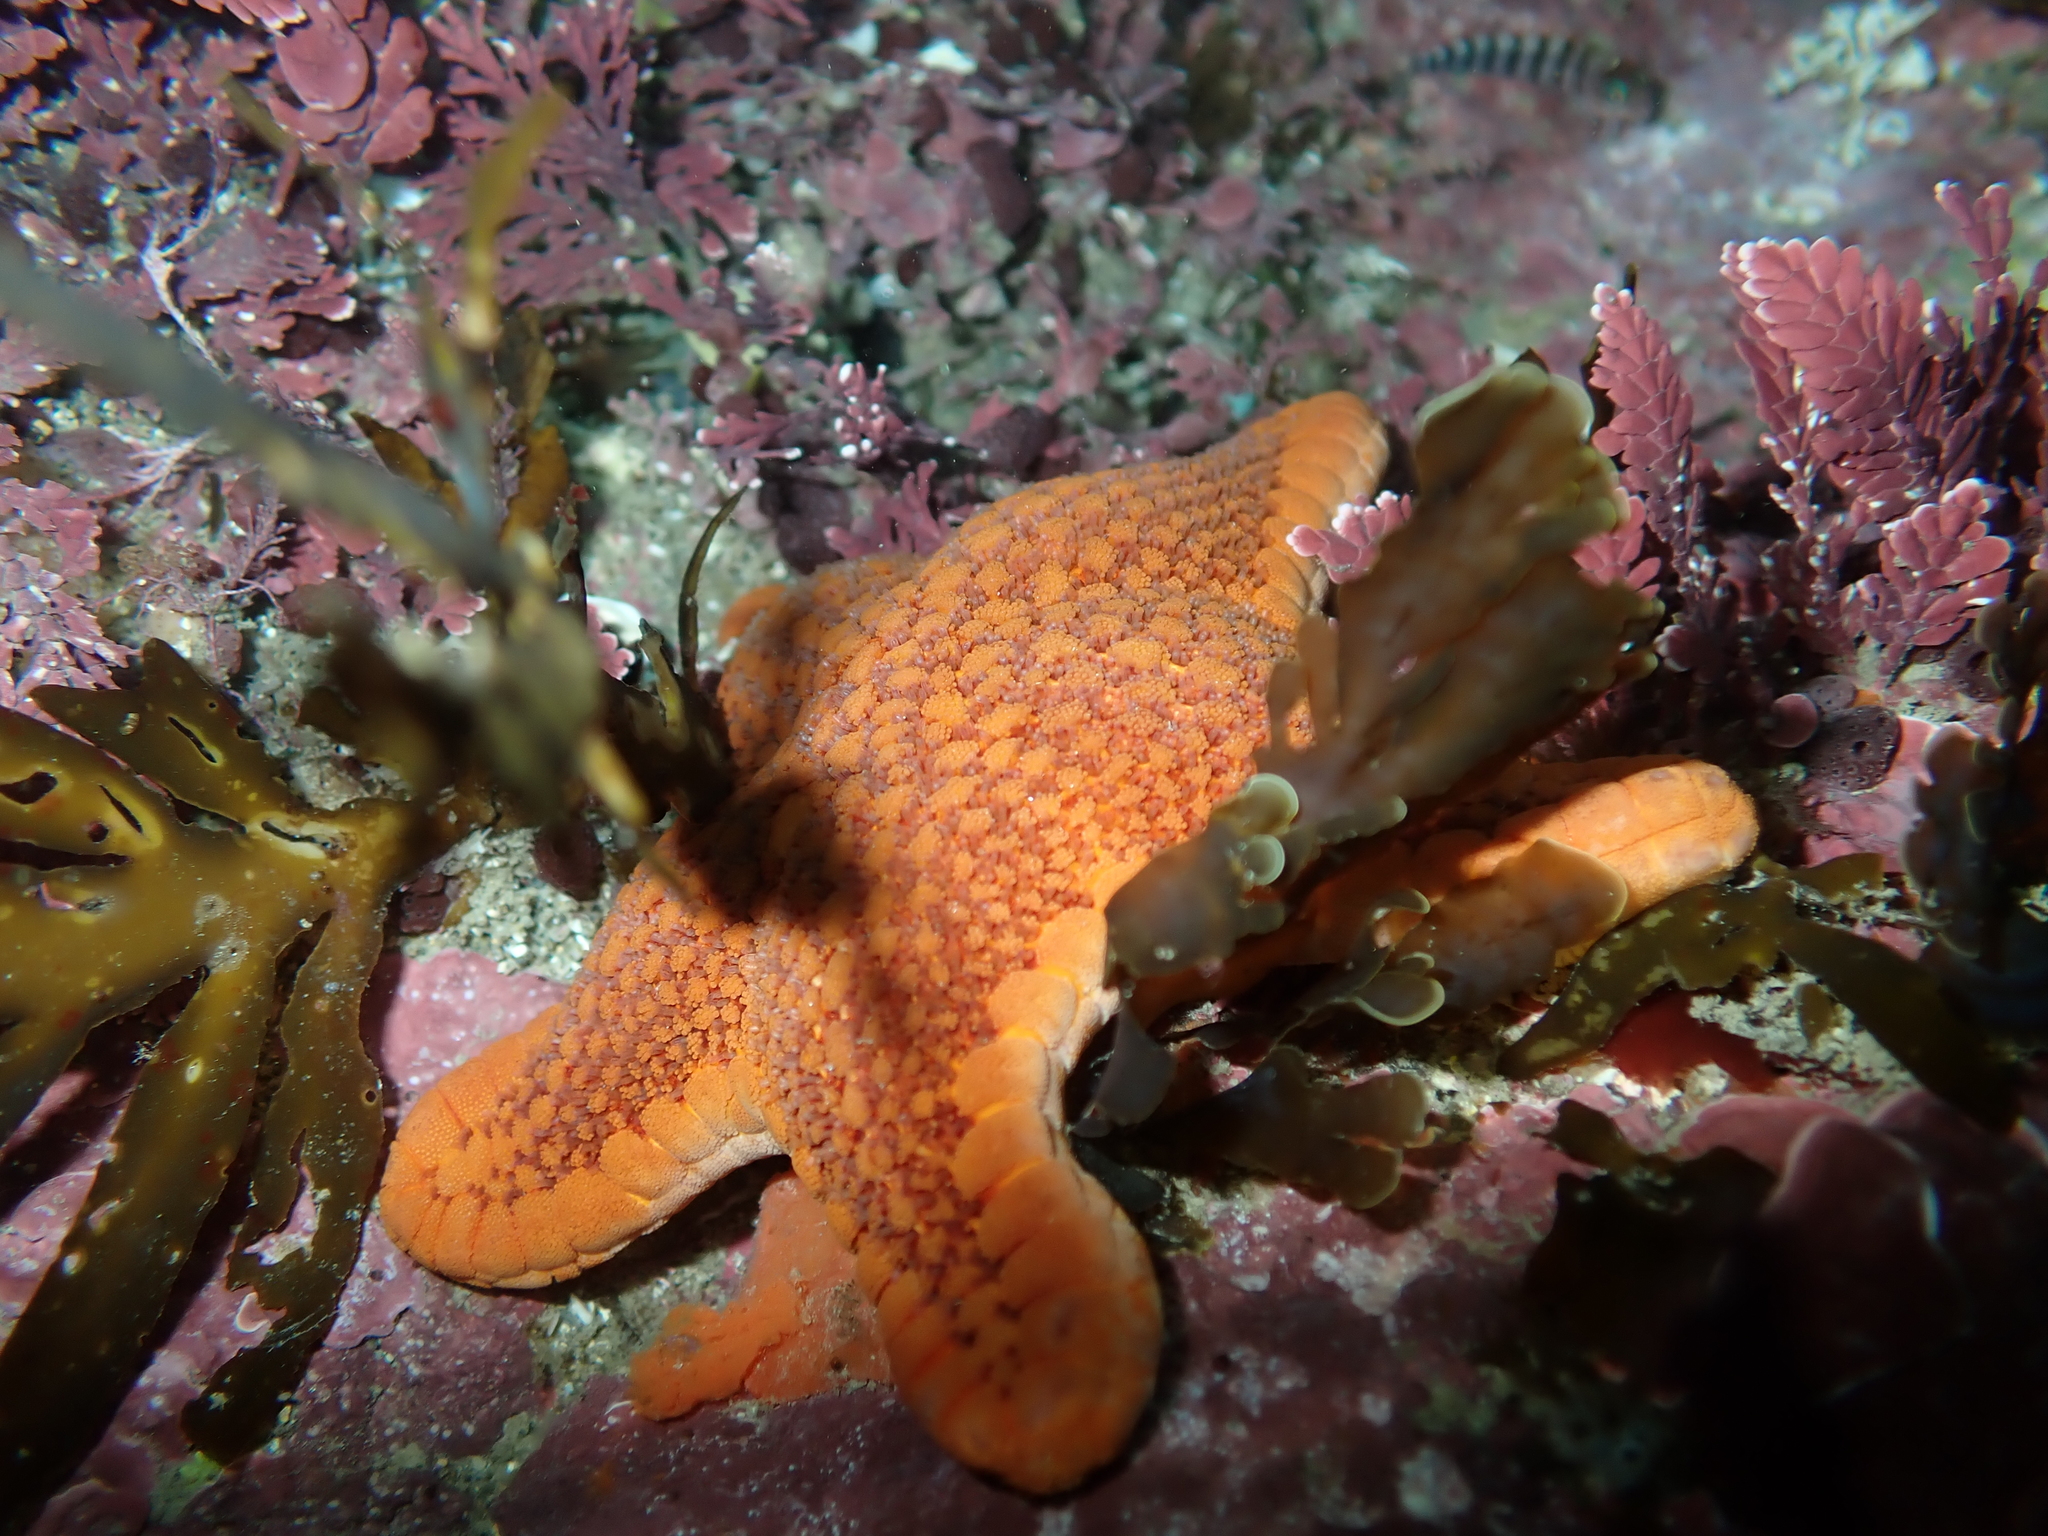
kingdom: Animalia
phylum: Echinodermata
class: Asteroidea
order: Valvatida
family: Odontasteridae
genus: Diplodontias
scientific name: Diplodontias dilatatus
